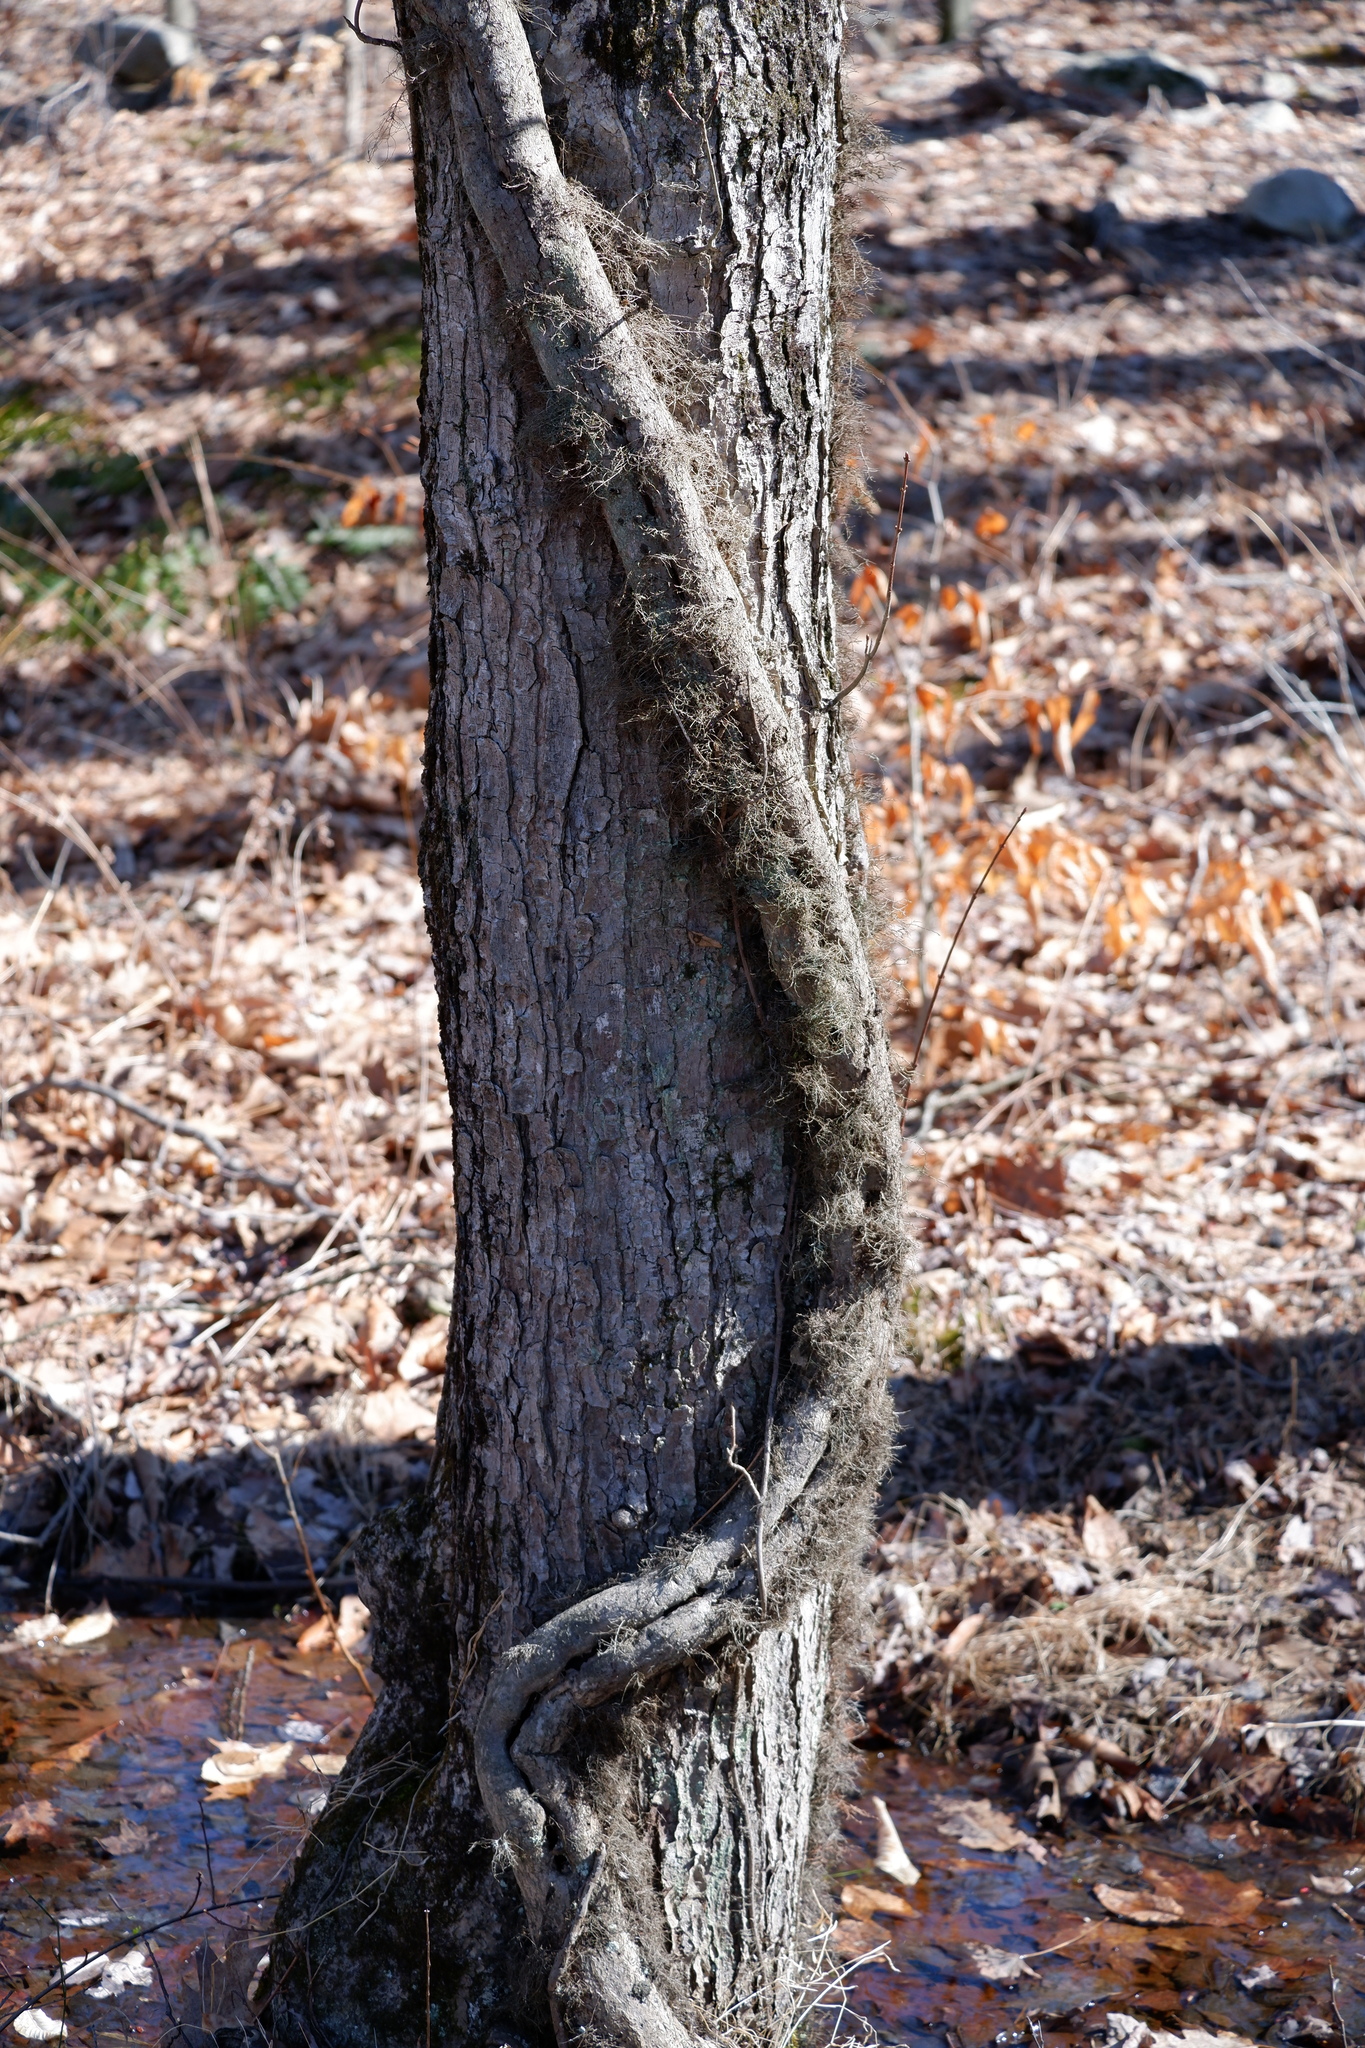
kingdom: Plantae
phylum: Tracheophyta
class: Magnoliopsida
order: Sapindales
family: Anacardiaceae
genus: Toxicodendron
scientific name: Toxicodendron radicans
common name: Poison ivy
